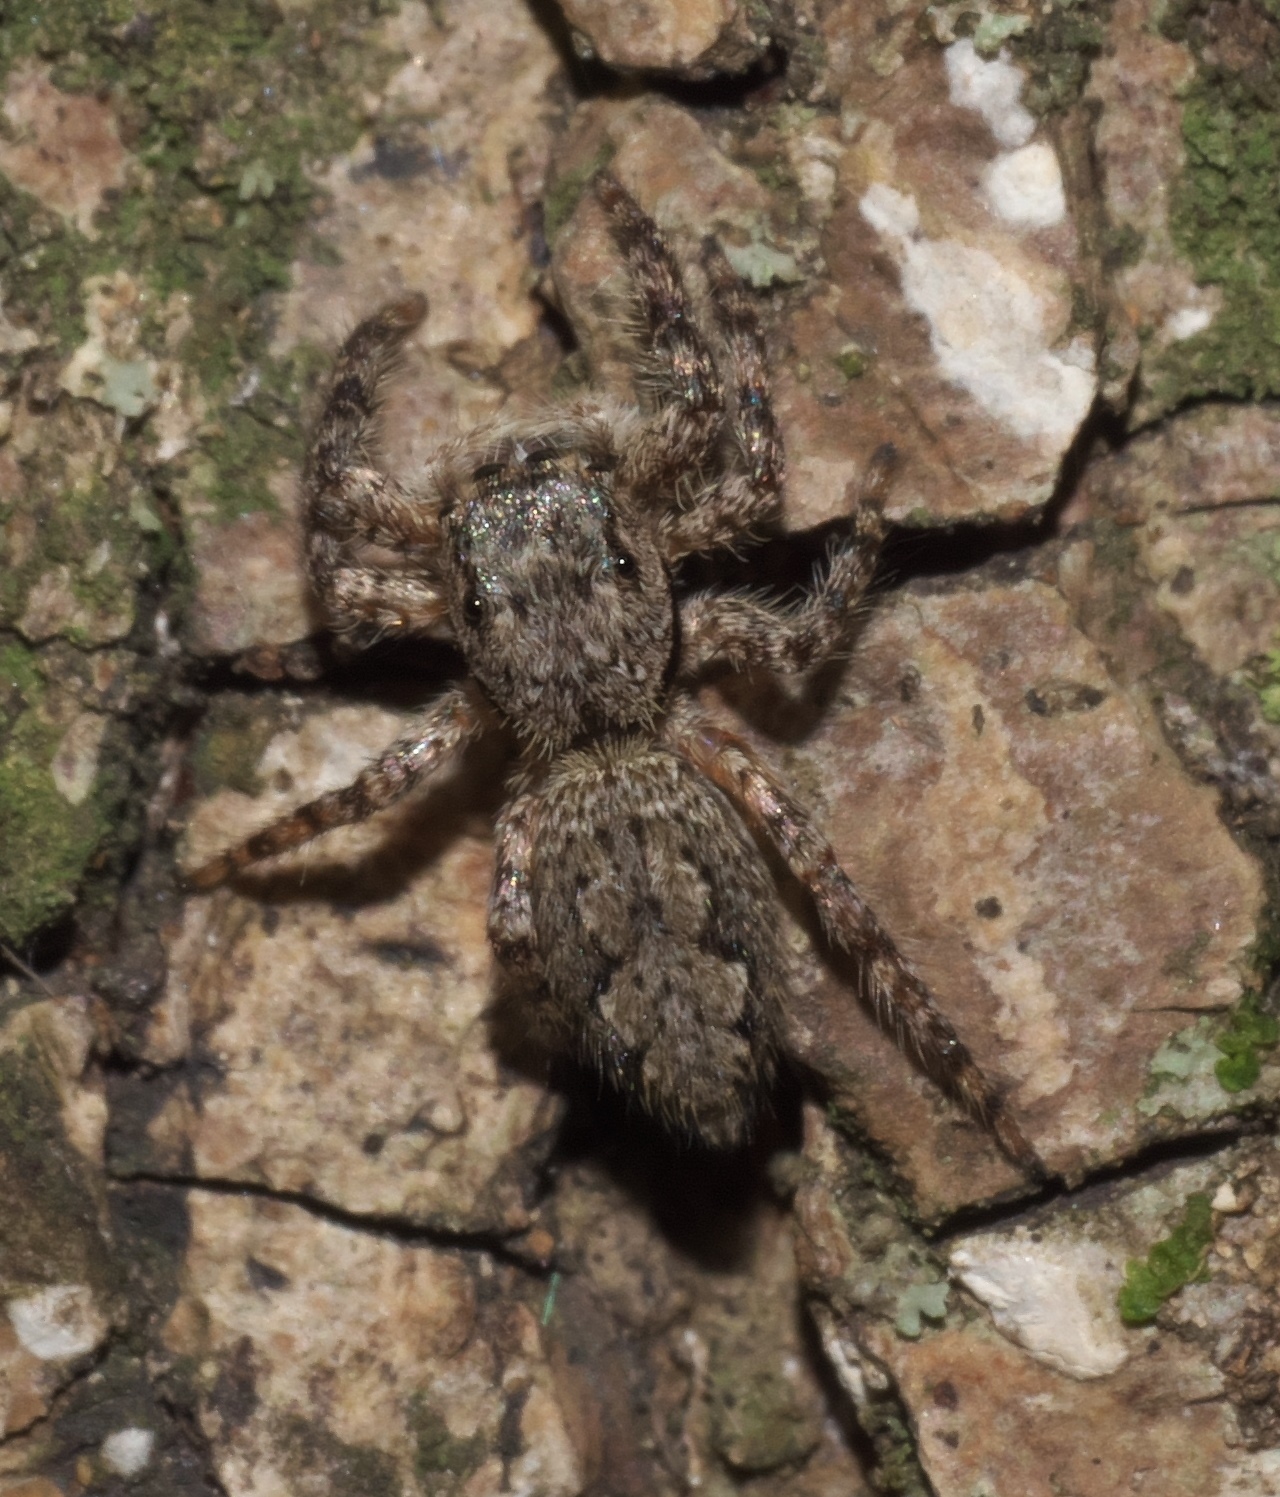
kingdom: Animalia
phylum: Arthropoda
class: Arachnida
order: Araneae
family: Salticidae
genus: Platycryptus
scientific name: Platycryptus undatus
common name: Tan jumping spider
